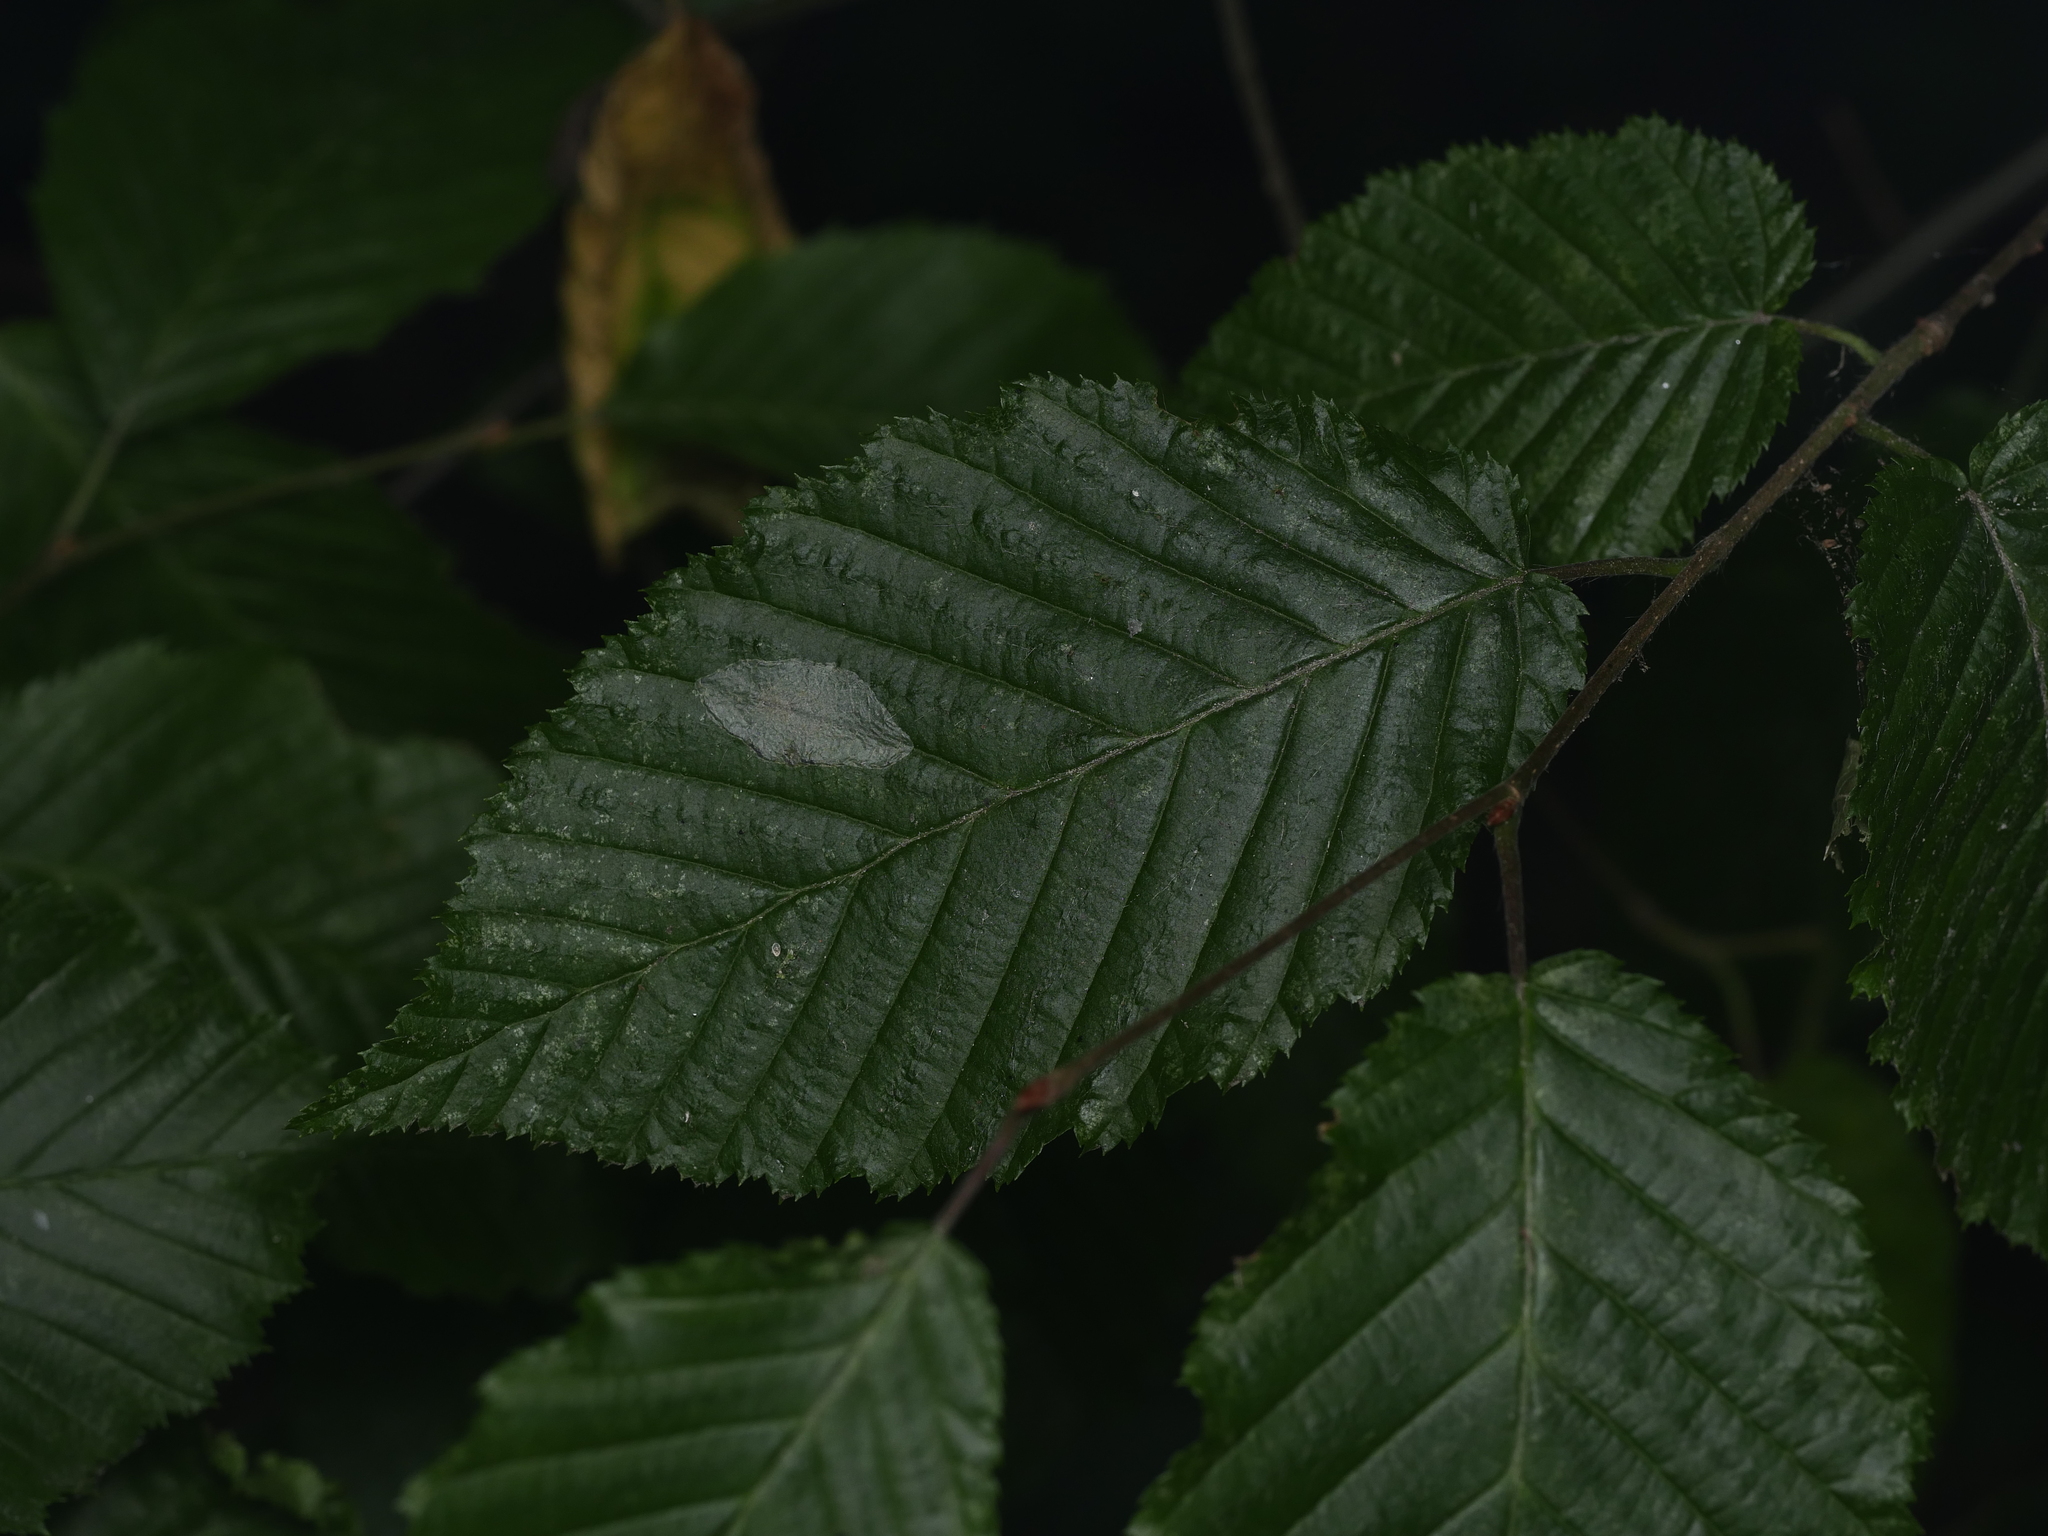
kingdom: Plantae
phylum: Tracheophyta
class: Magnoliopsida
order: Fagales
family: Betulaceae
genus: Carpinus
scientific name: Carpinus betulus
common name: Hornbeam
